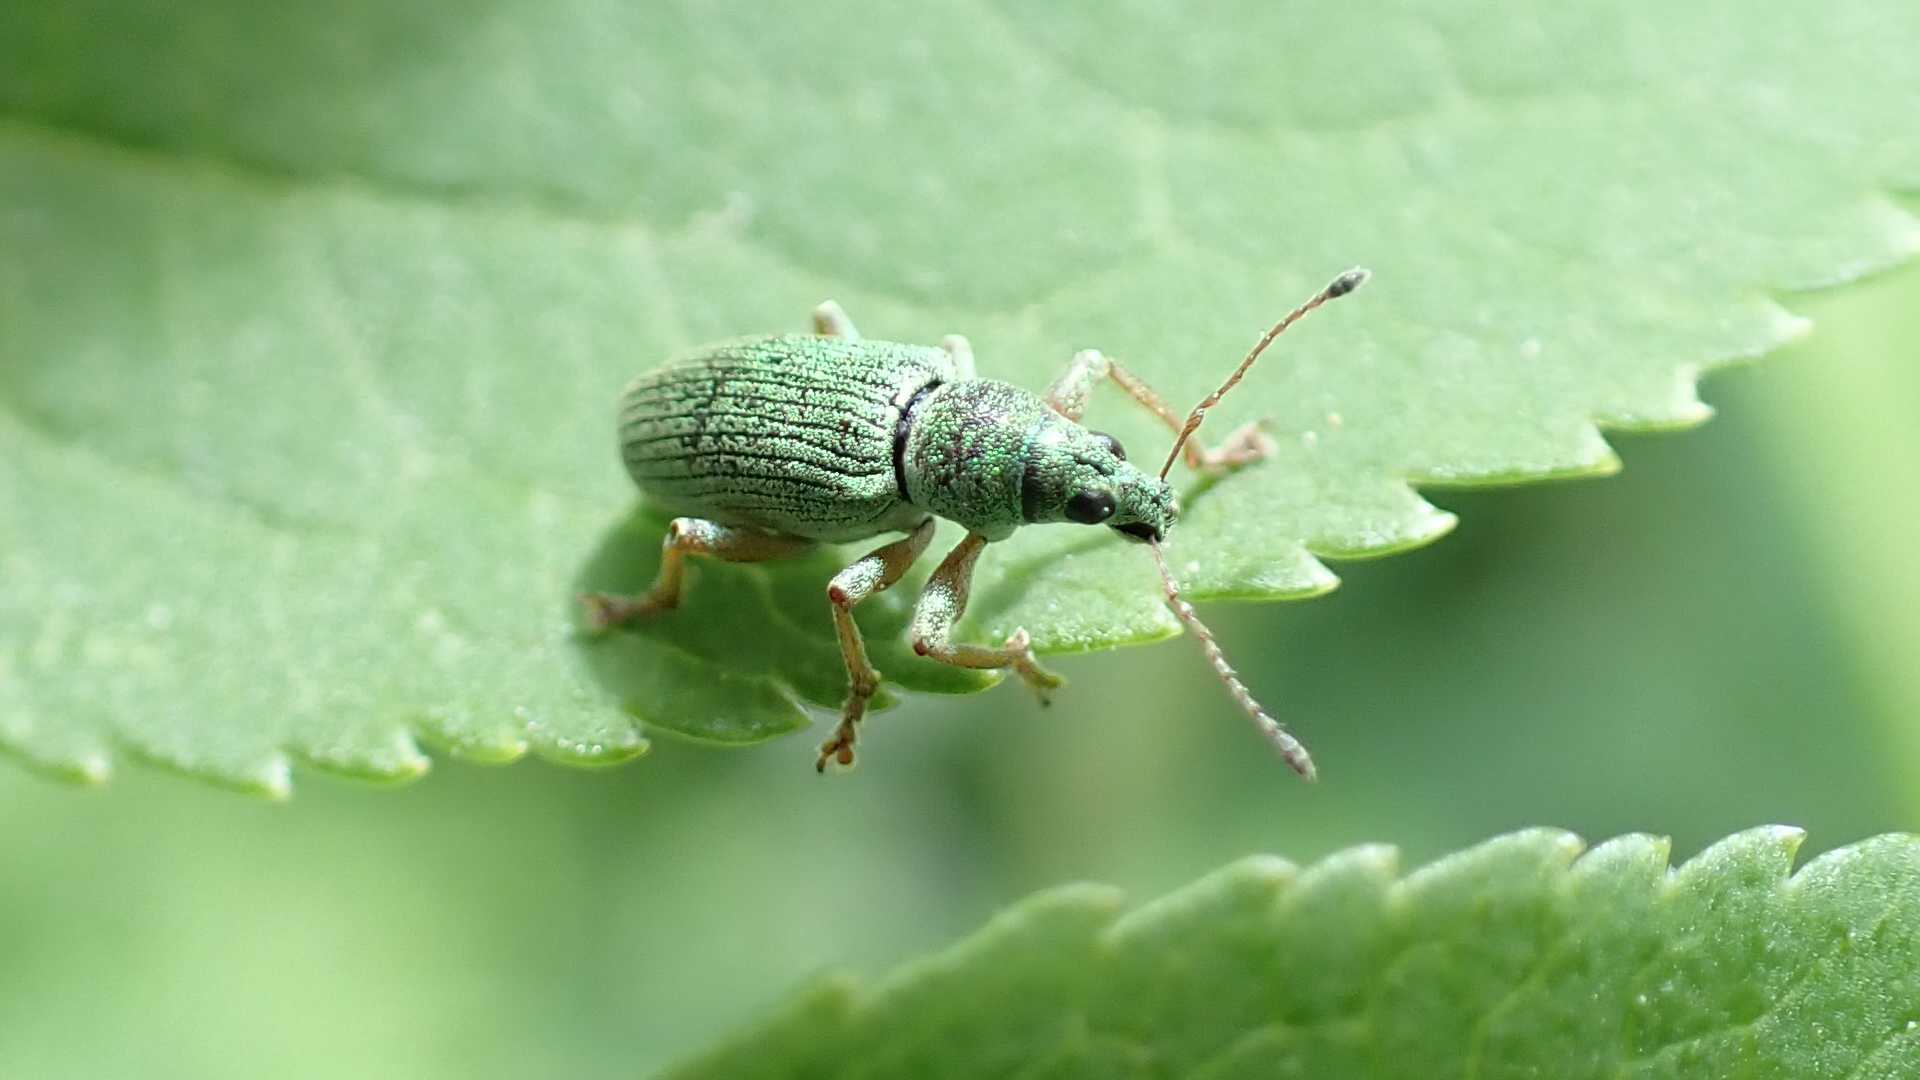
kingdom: Animalia
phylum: Arthropoda
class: Insecta
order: Coleoptera
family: Curculionidae
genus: Polydrusus
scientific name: Polydrusus formosus
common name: Weevil
